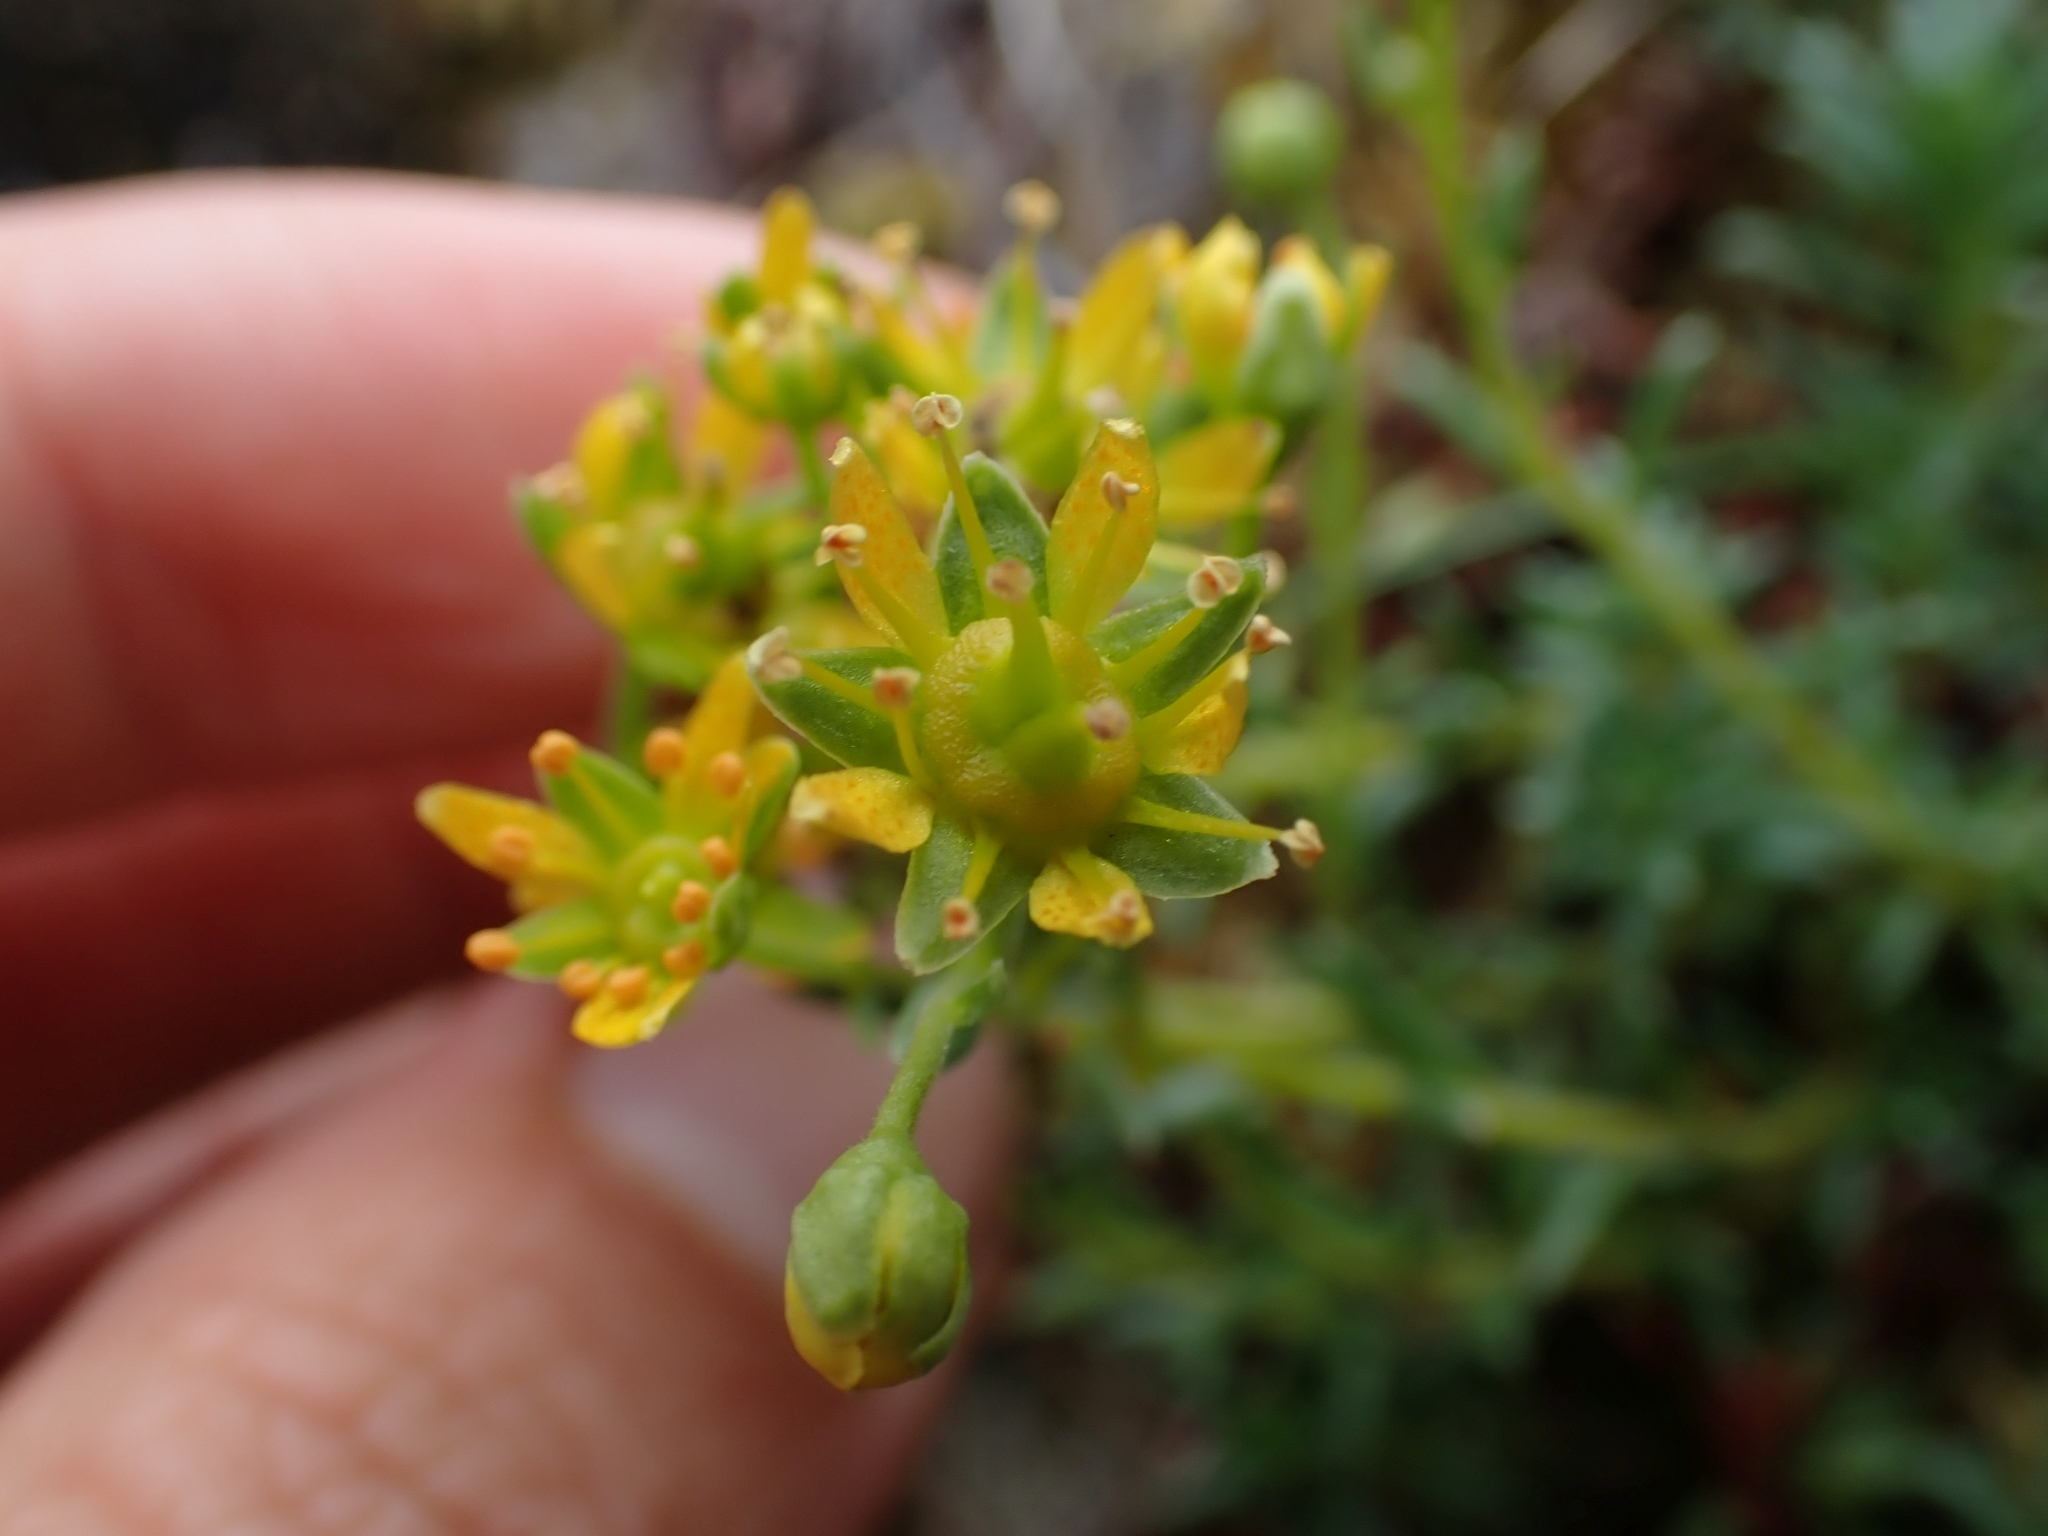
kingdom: Plantae
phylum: Tracheophyta
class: Magnoliopsida
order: Saxifragales
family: Saxifragaceae
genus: Saxifraga
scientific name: Saxifraga aizoides
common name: Yellow mountain saxifrage
